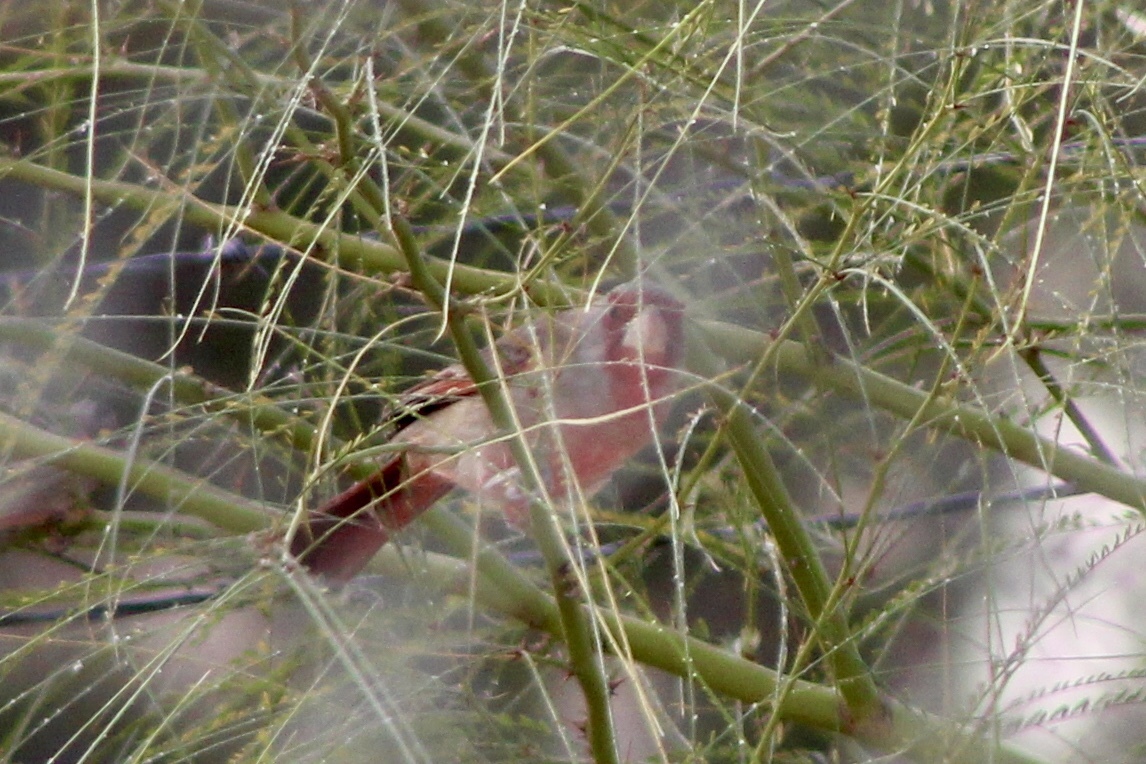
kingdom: Animalia
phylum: Chordata
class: Aves
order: Passeriformes
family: Cardinalidae
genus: Cardinalis
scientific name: Cardinalis sinuatus
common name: Pyrrhuloxia
